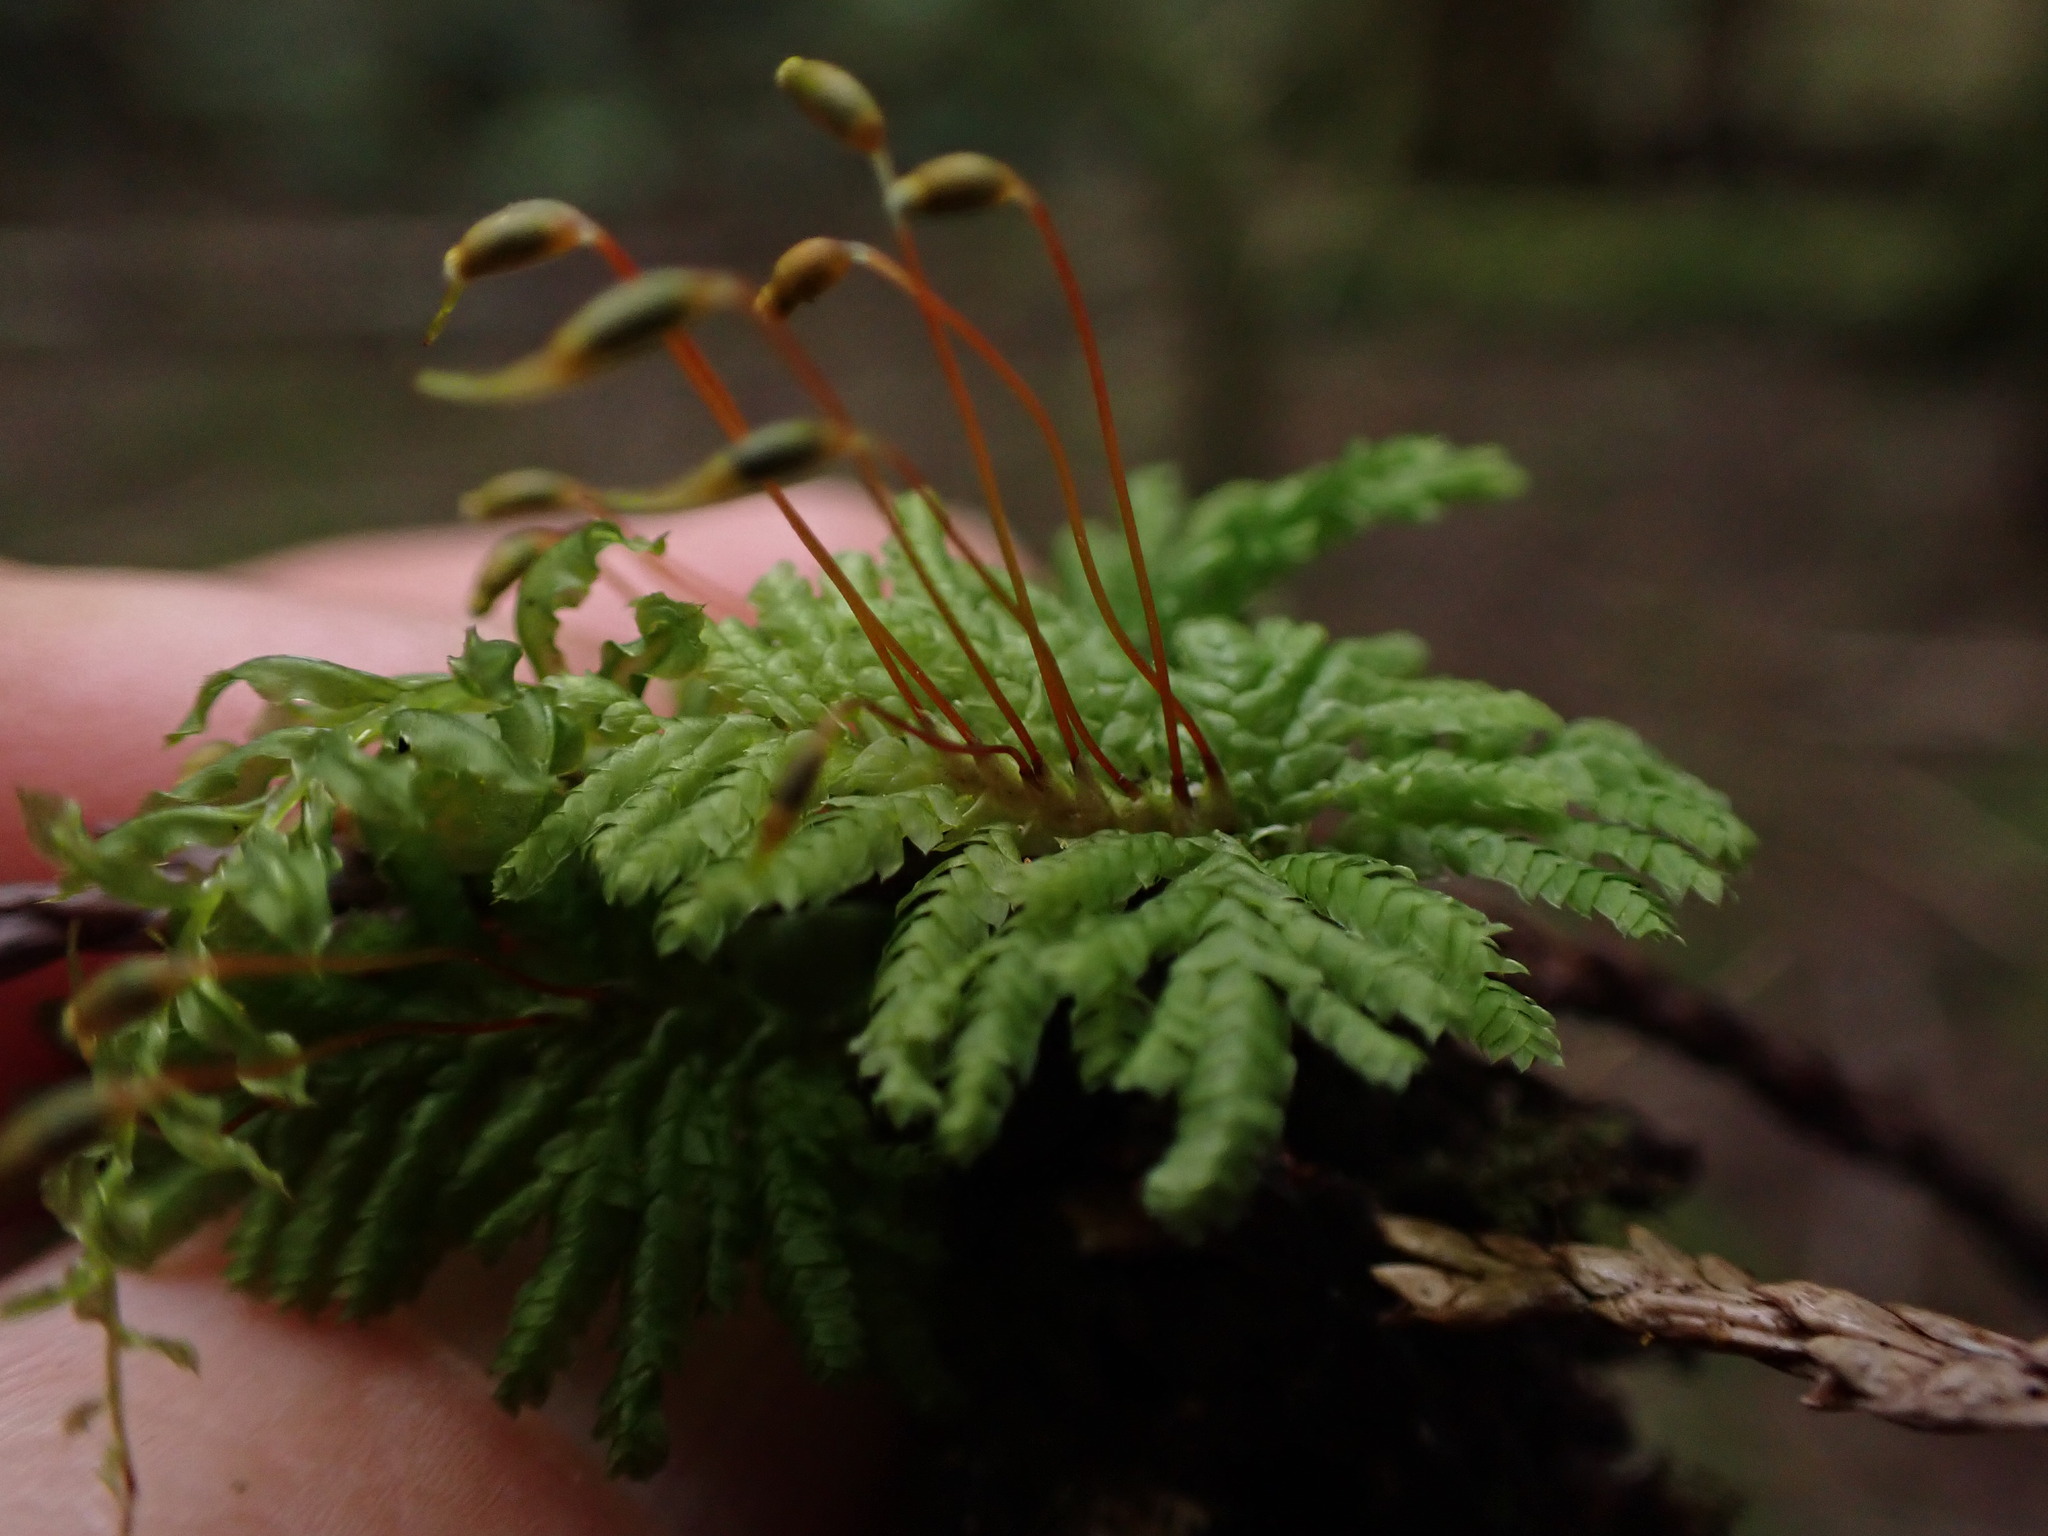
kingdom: Plantae
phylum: Bryophyta
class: Bryopsida
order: Hypopterygiales
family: Hypopterygiaceae
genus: Hypopterygium
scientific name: Hypopterygium flavolimbatum
